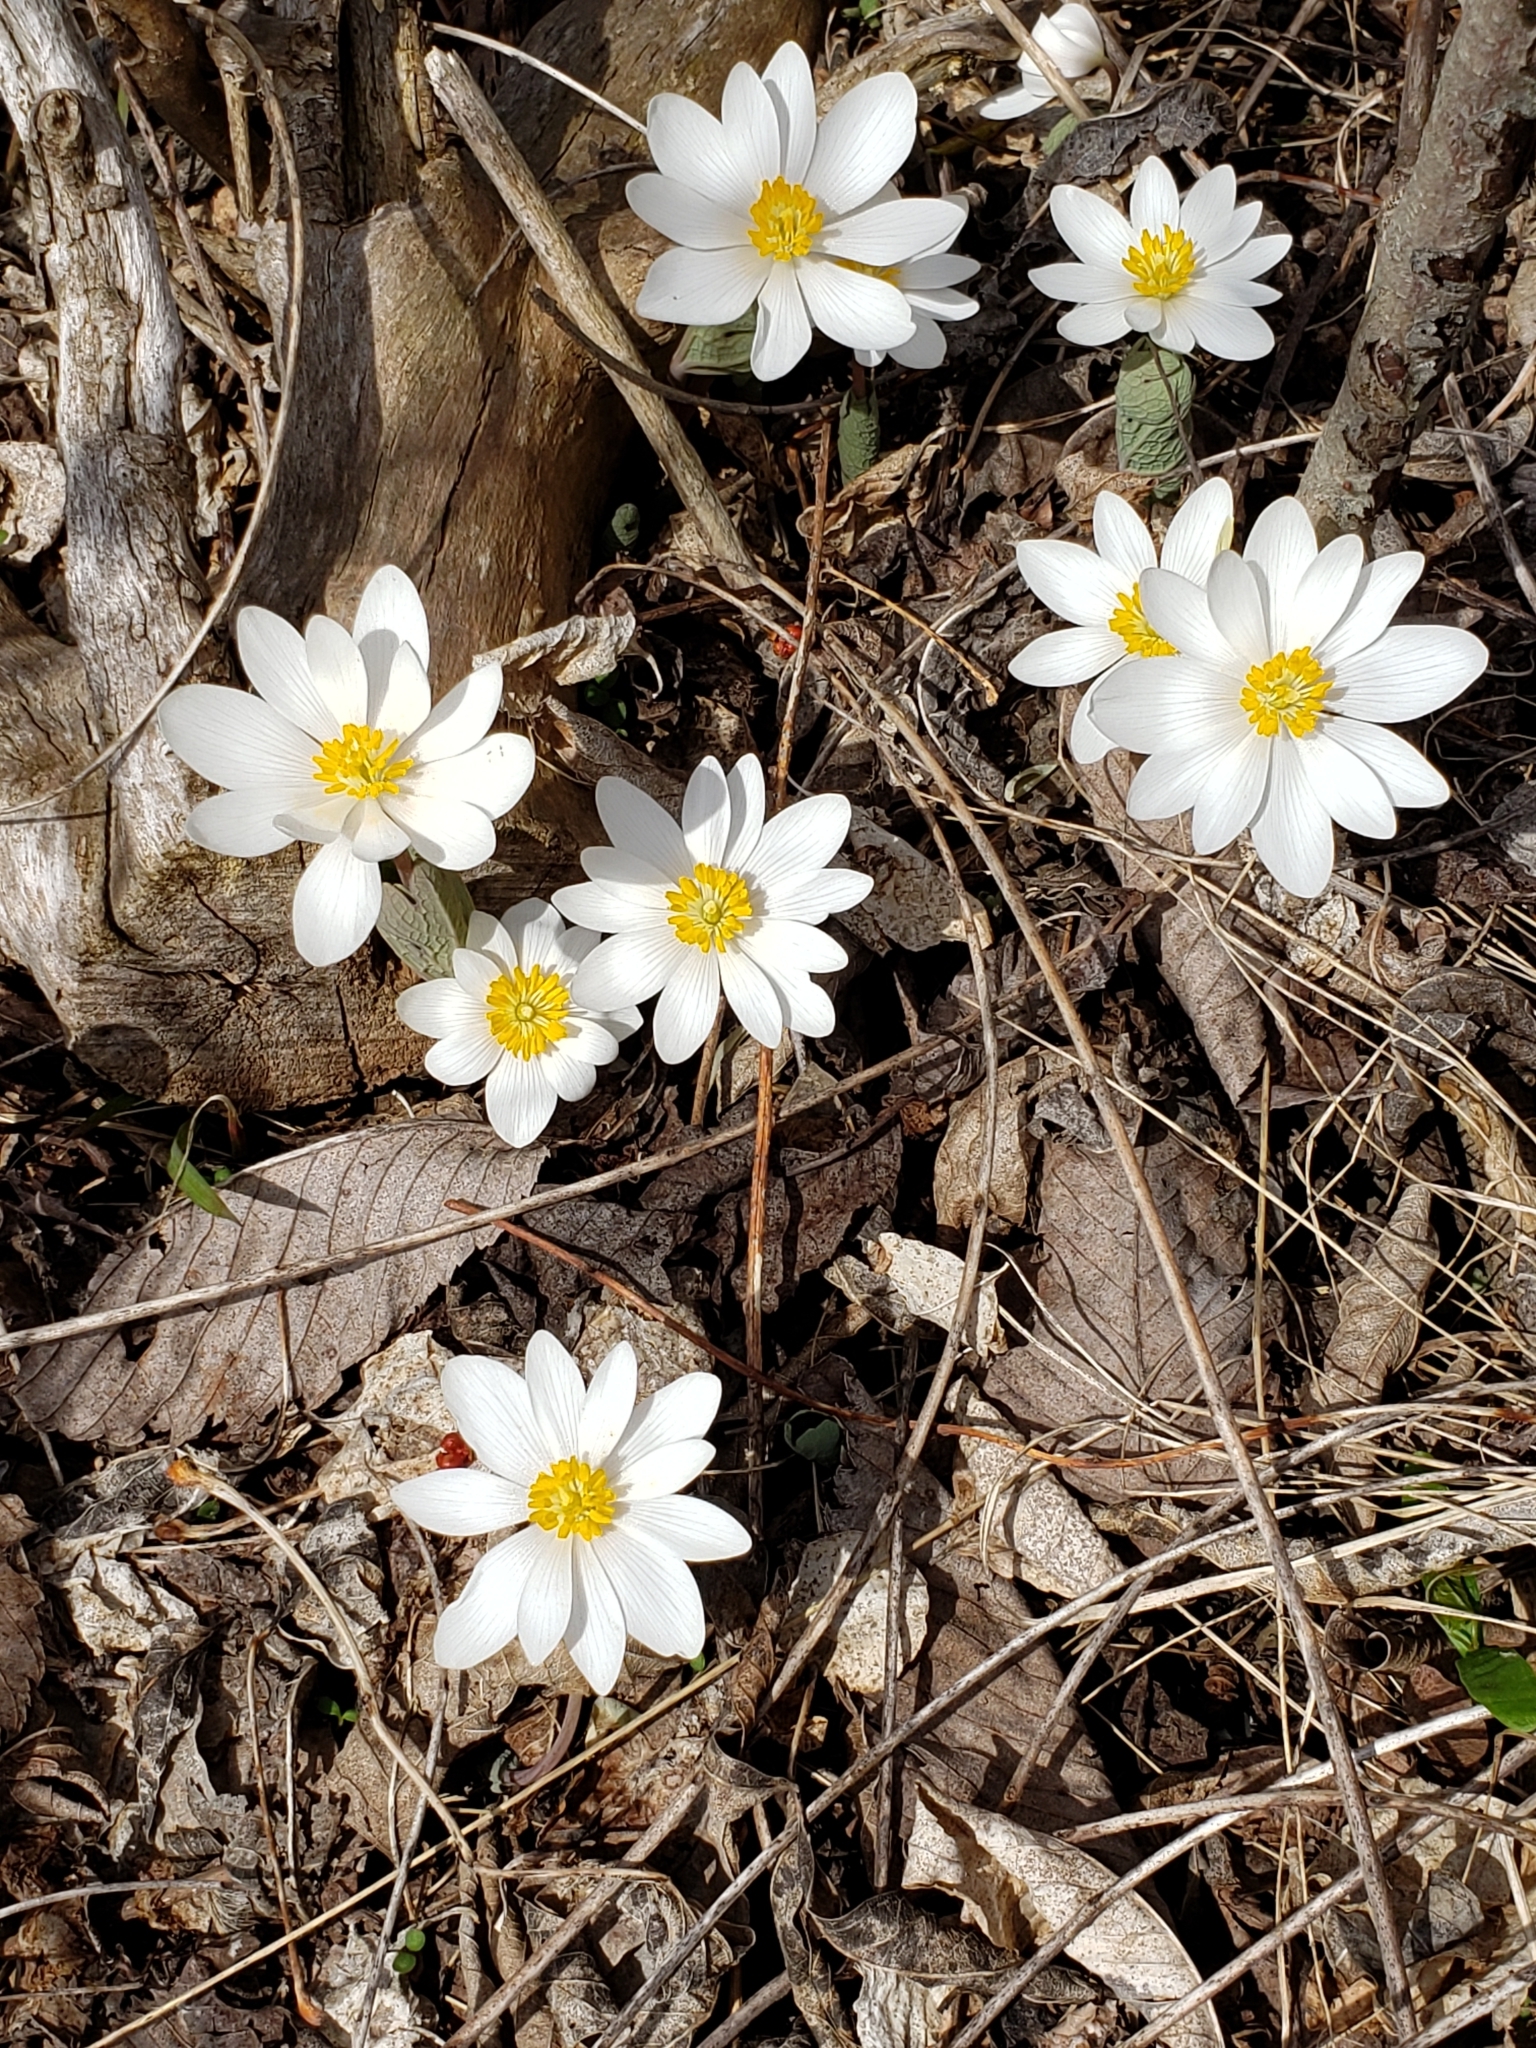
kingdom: Plantae
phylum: Tracheophyta
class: Magnoliopsida
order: Ranunculales
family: Papaveraceae
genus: Sanguinaria
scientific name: Sanguinaria canadensis
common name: Bloodroot
